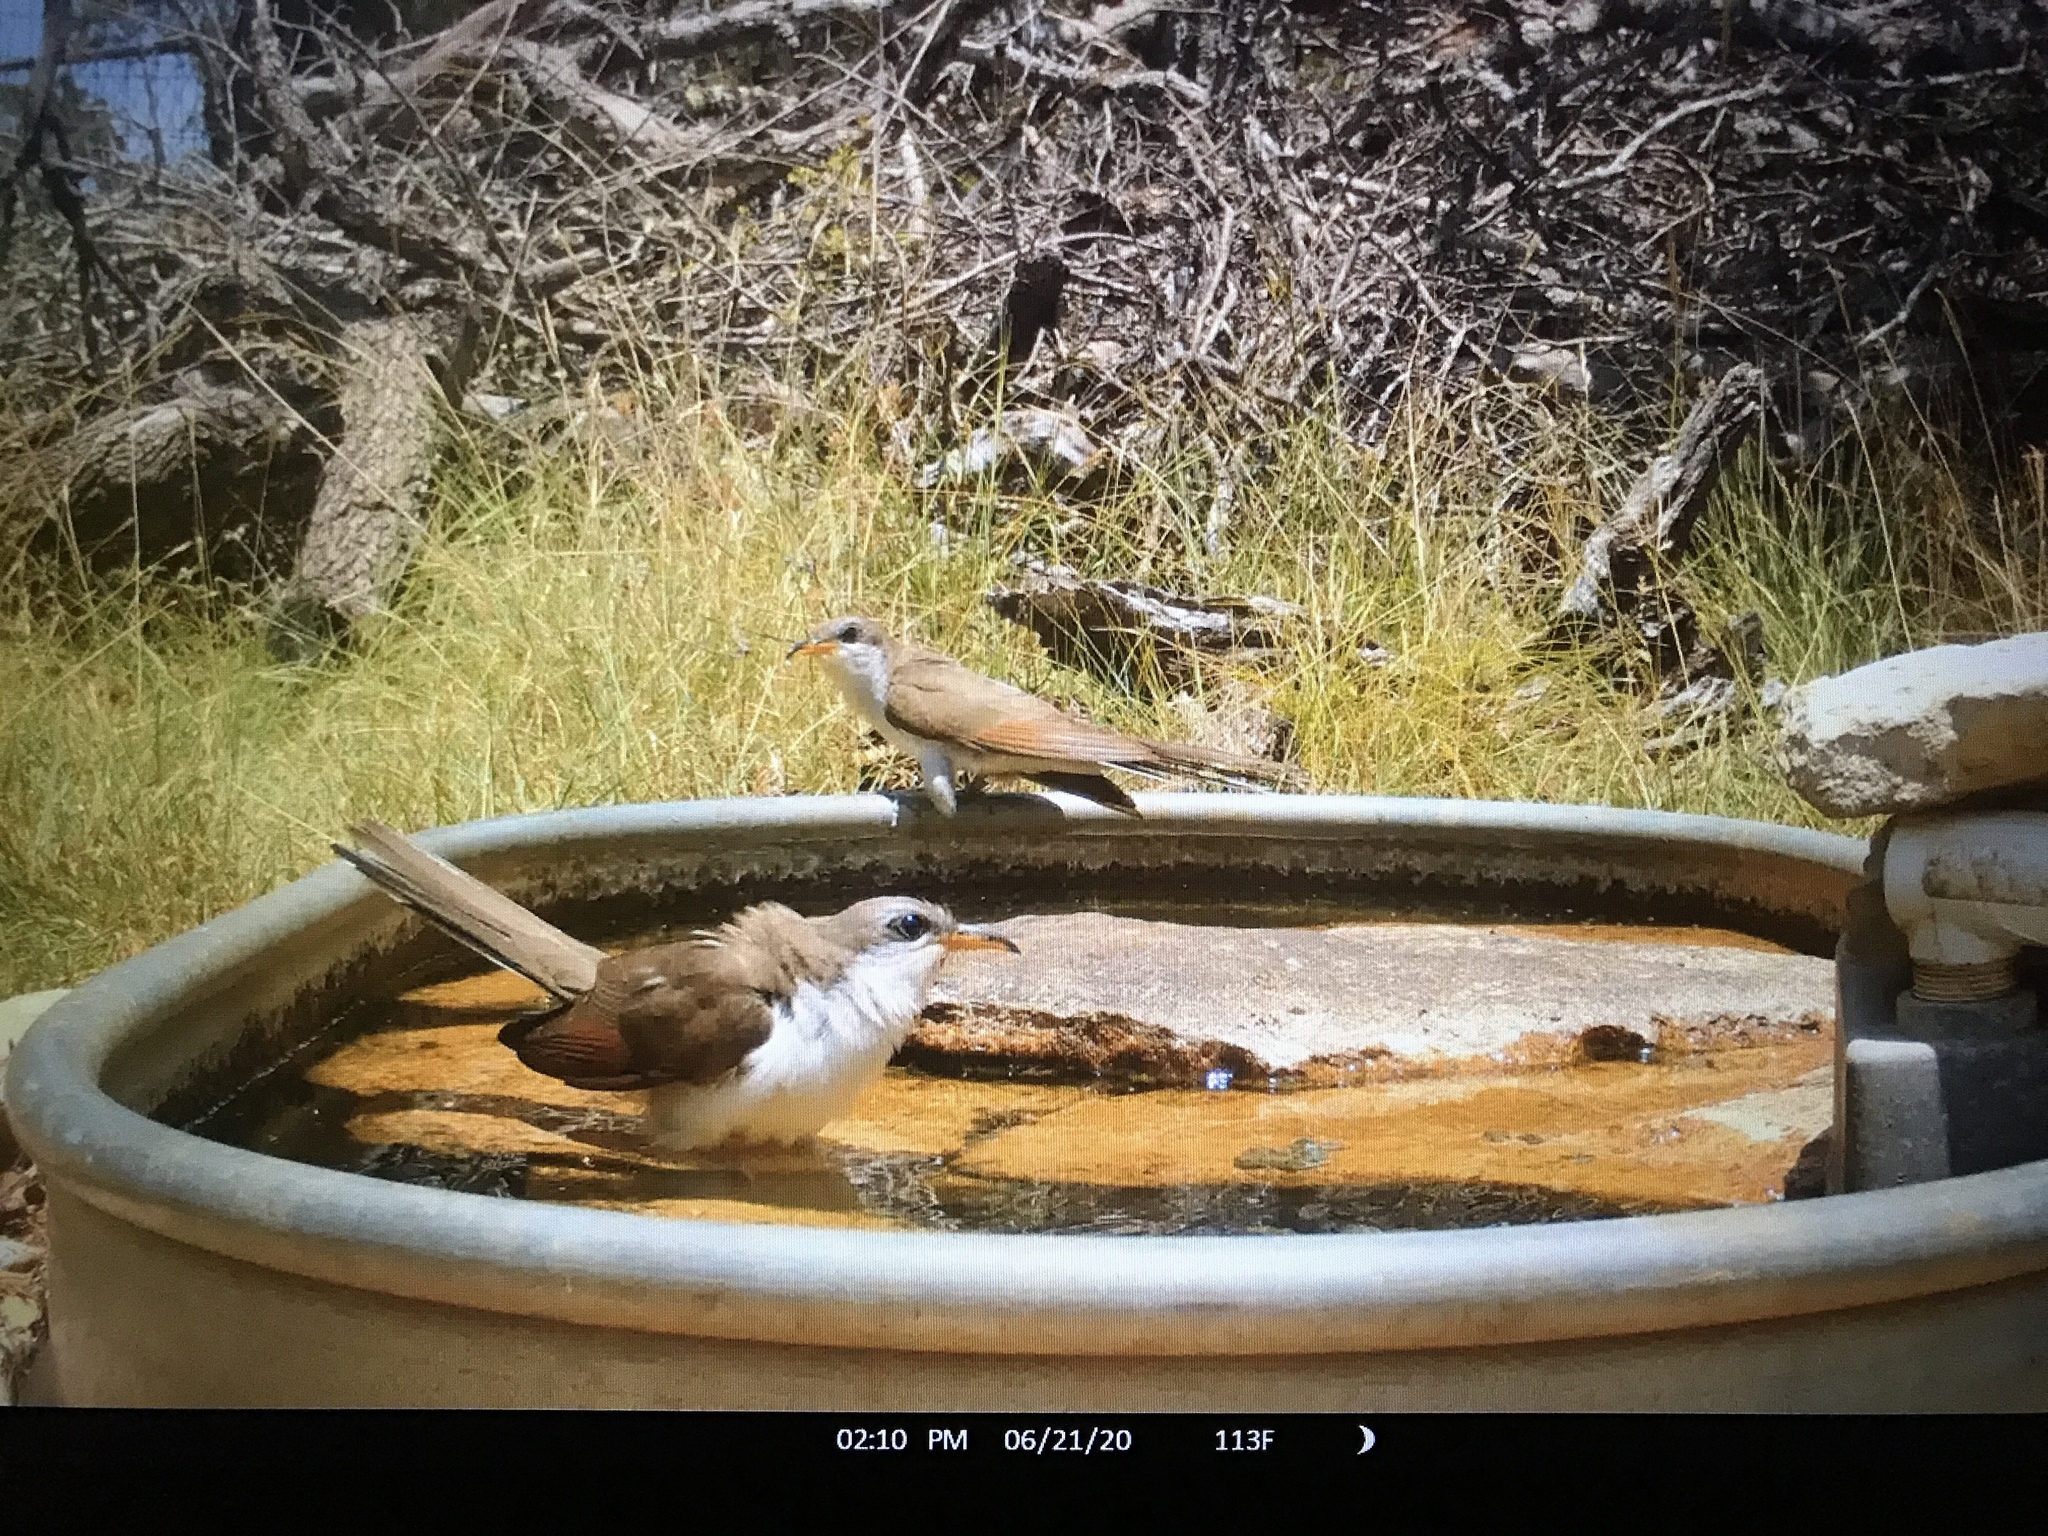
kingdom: Animalia
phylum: Chordata
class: Aves
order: Cuculiformes
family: Cuculidae
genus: Coccyzus
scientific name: Coccyzus americanus
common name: Yellow-billed cuckoo
